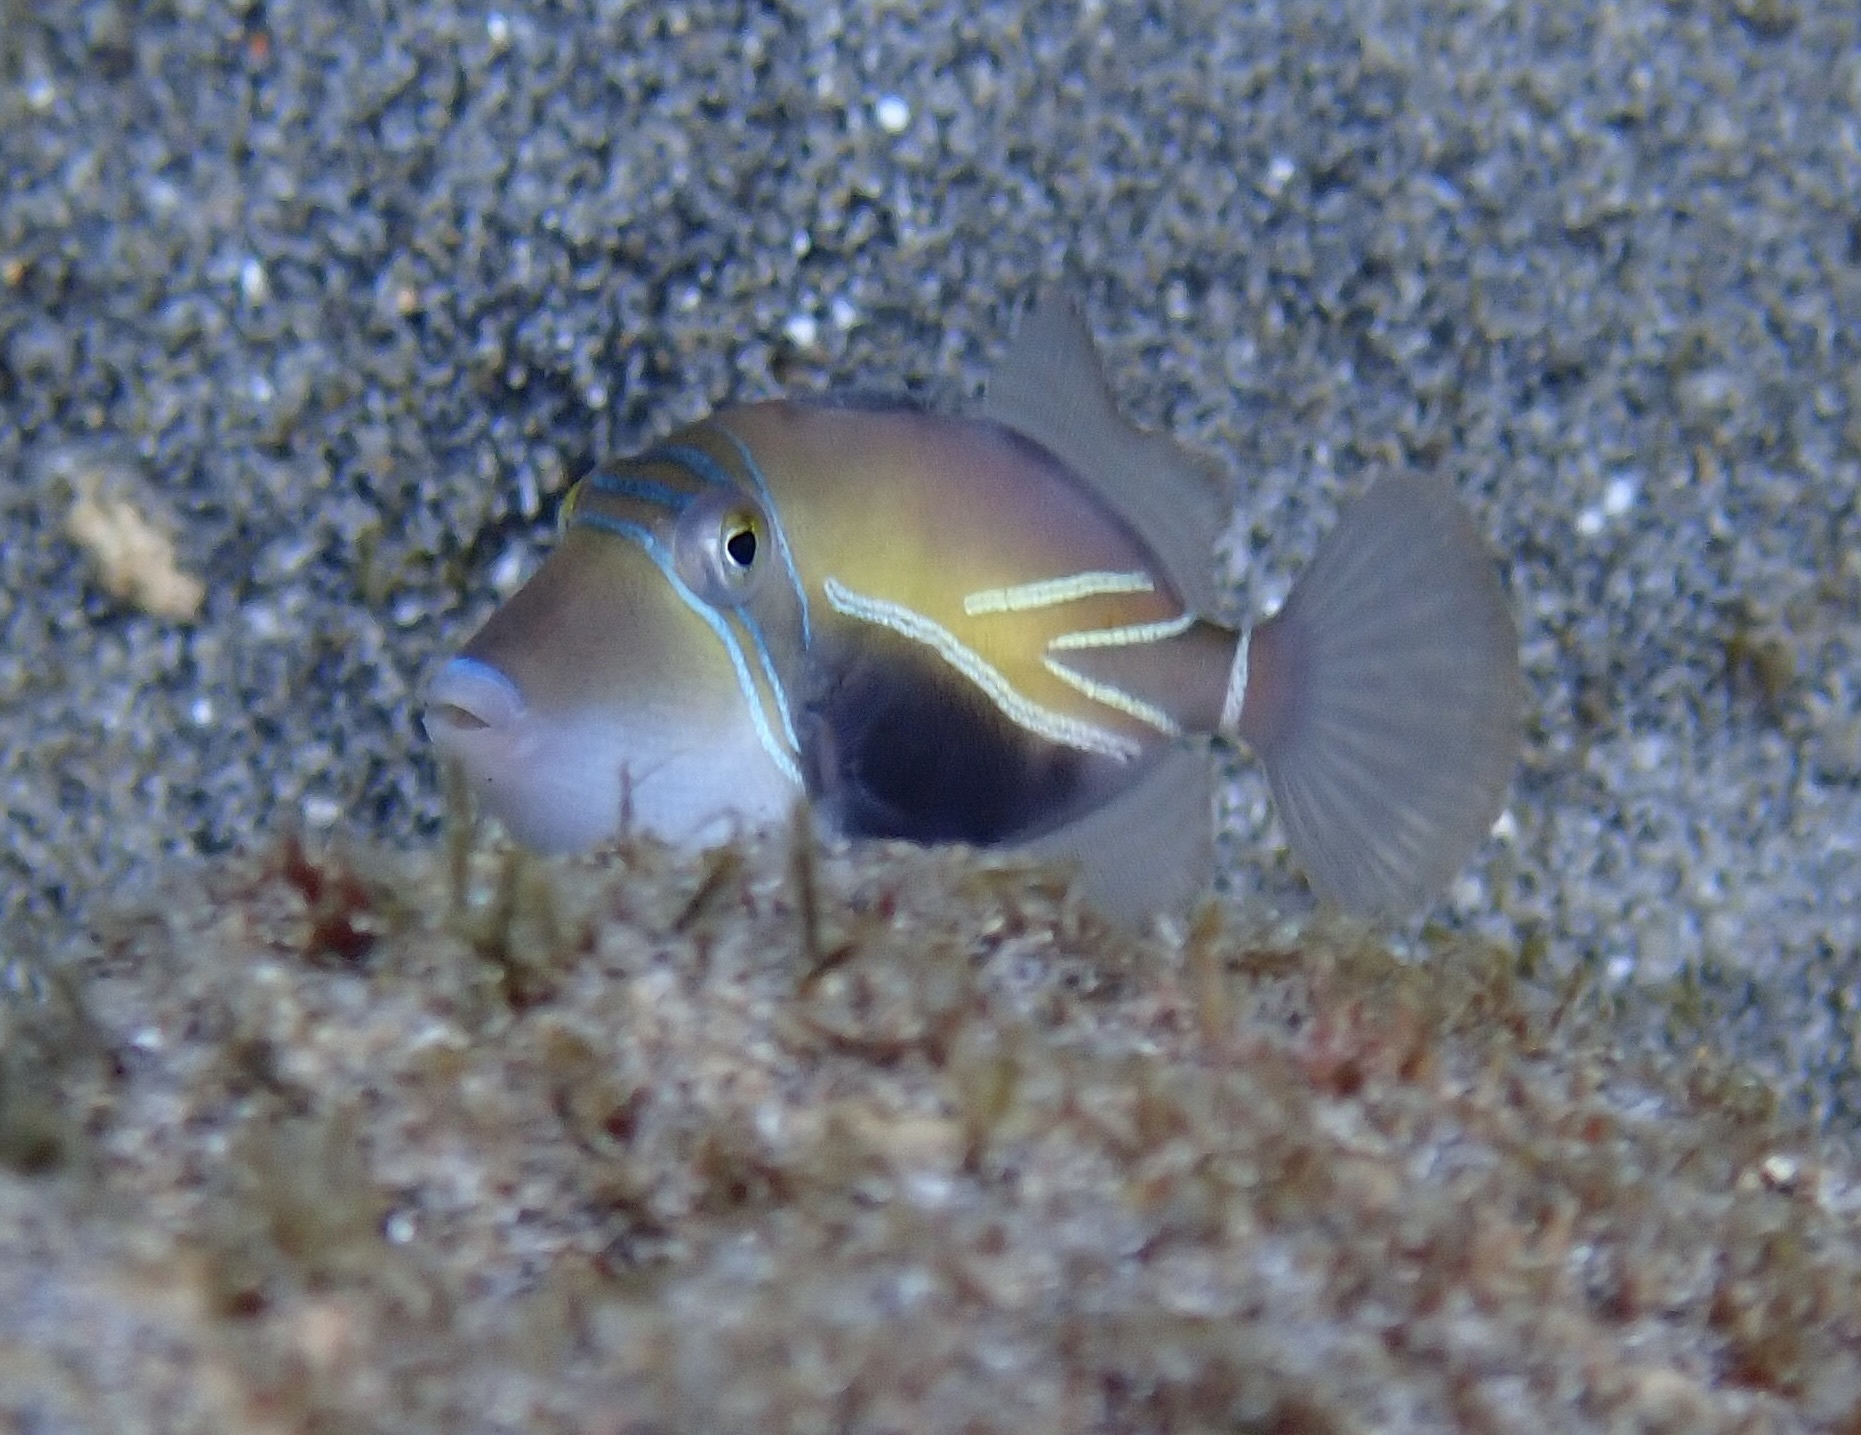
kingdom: Animalia
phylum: Chordata
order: Tetraodontiformes
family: Balistidae
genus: Rhinecanthus
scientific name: Rhinecanthus rectangulus
